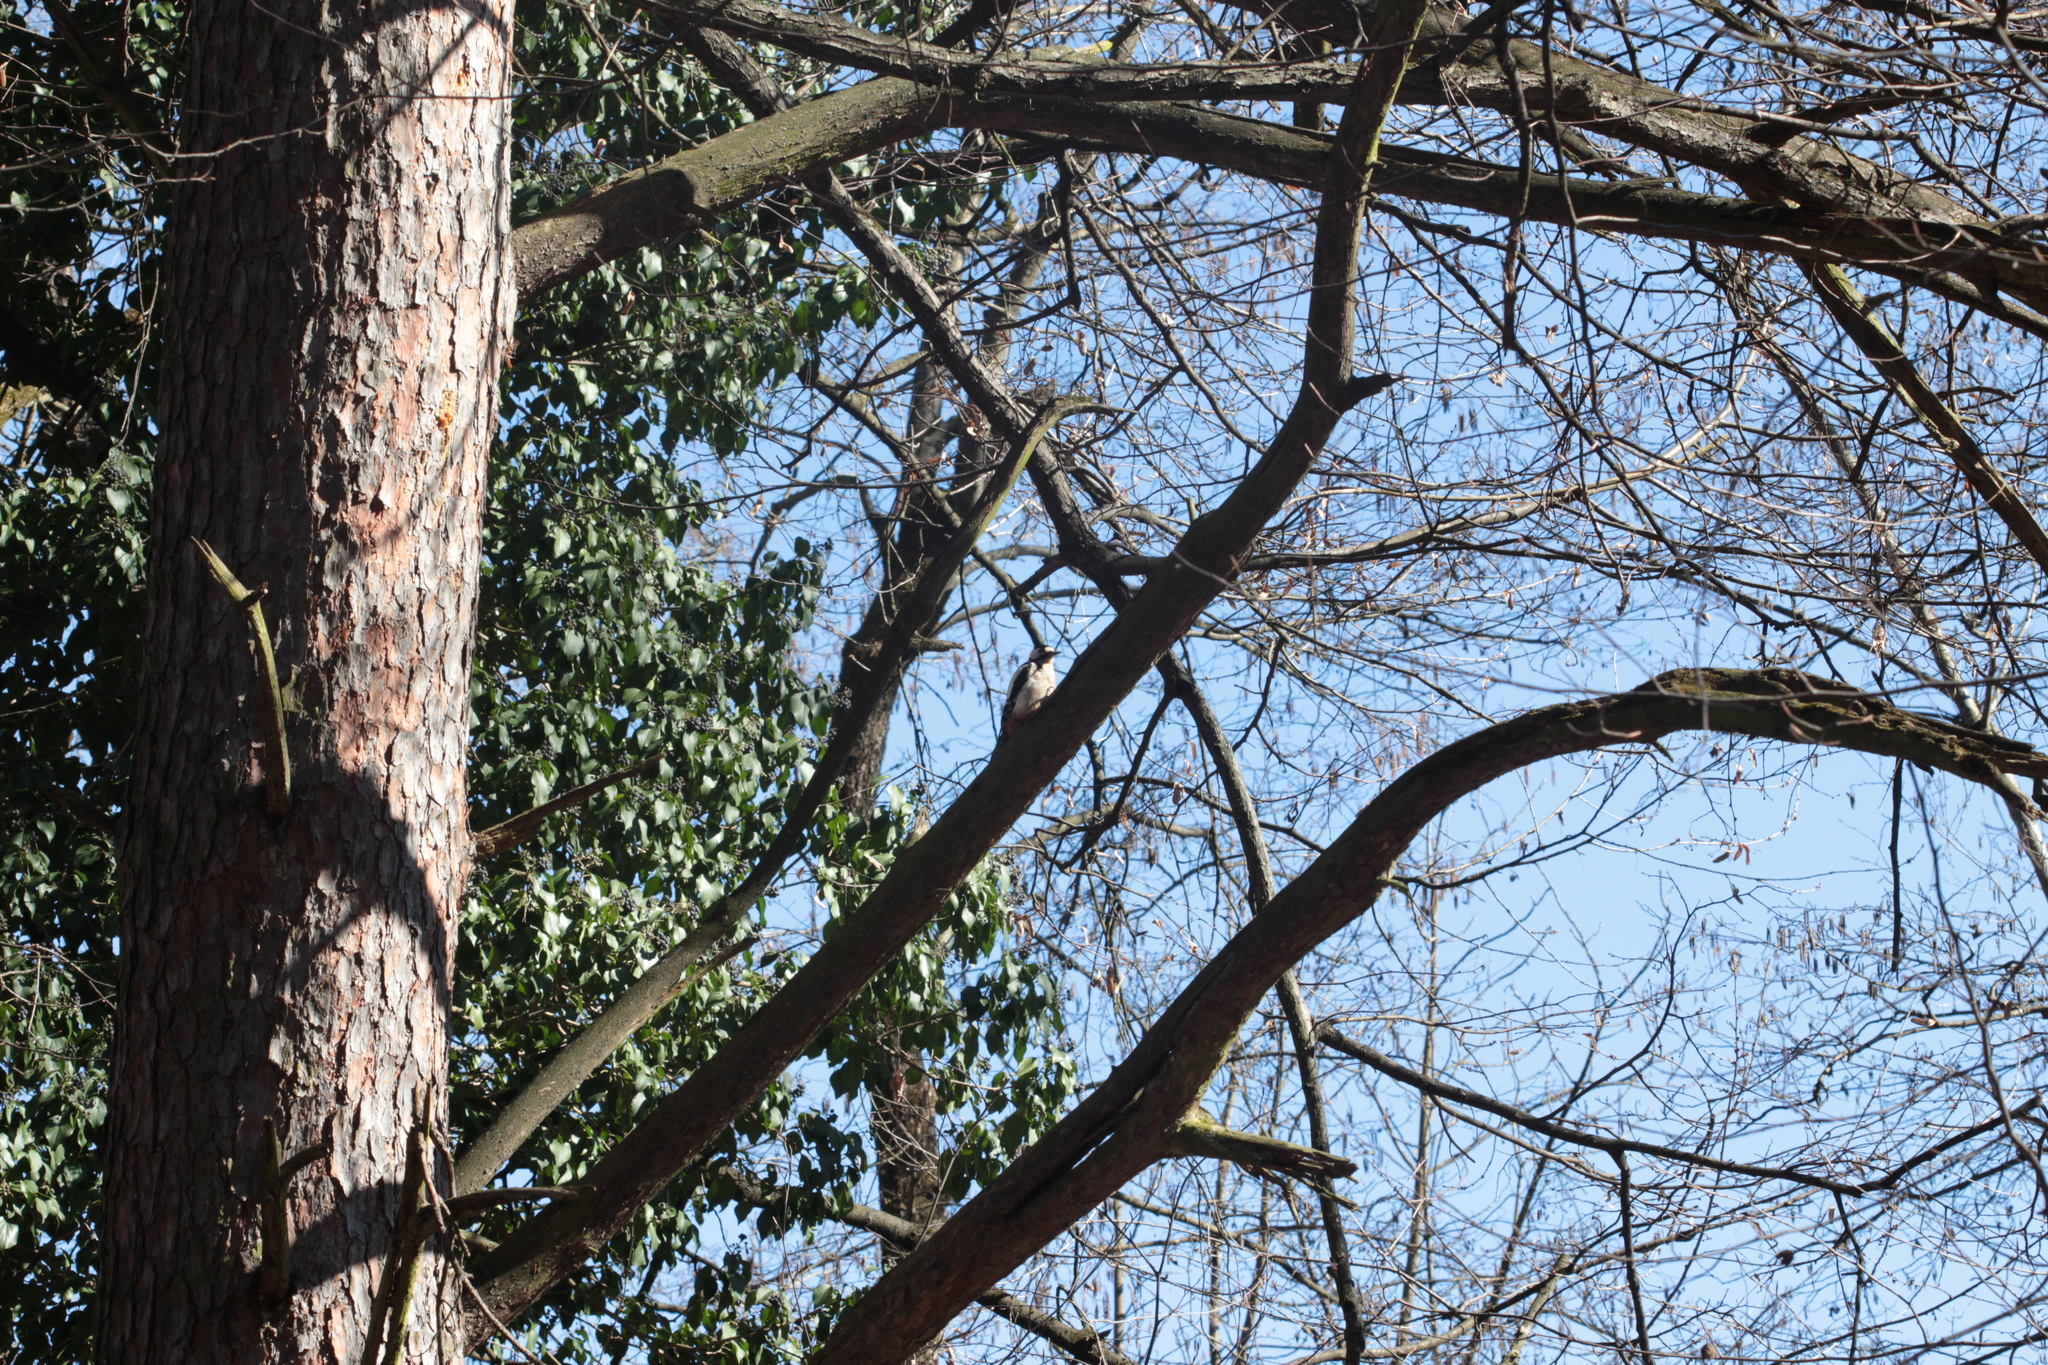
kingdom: Animalia
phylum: Chordata
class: Aves
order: Piciformes
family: Picidae
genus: Dendrocopos
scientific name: Dendrocopos major
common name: Great spotted woodpecker
